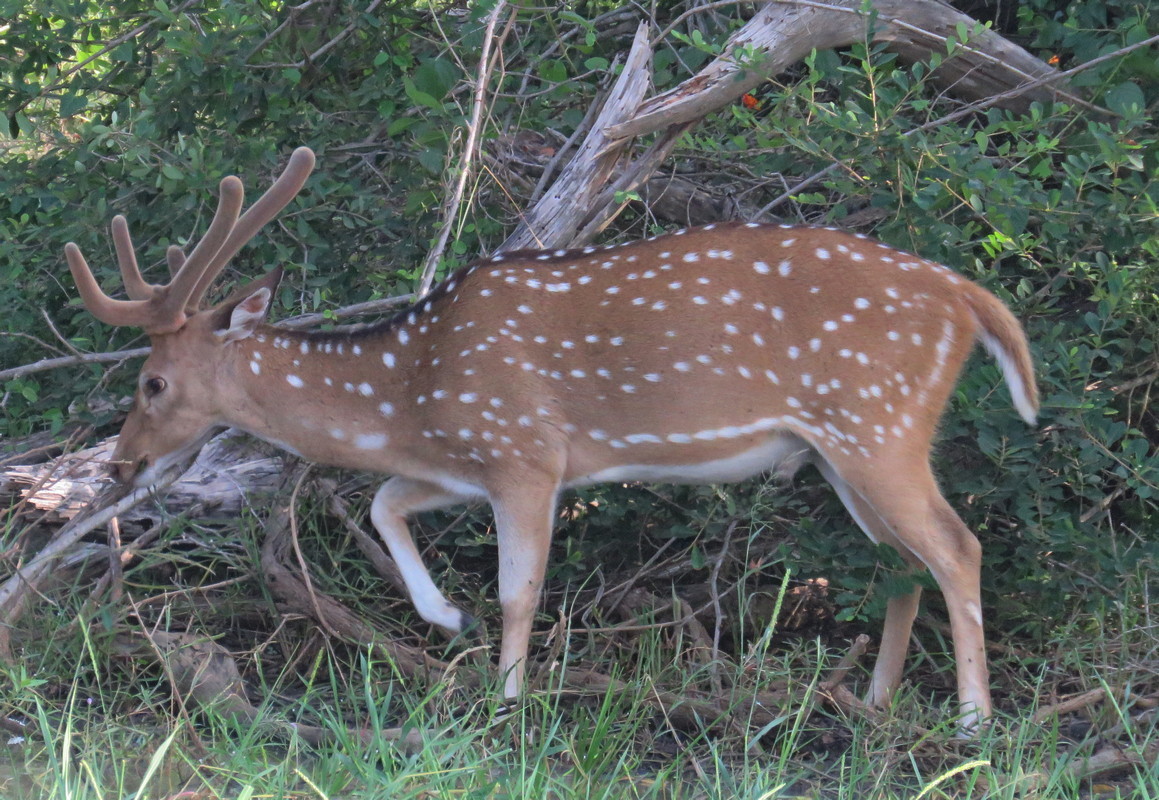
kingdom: Animalia
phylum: Chordata
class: Mammalia
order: Artiodactyla
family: Cervidae
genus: Axis
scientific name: Axis axis
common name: Chital
